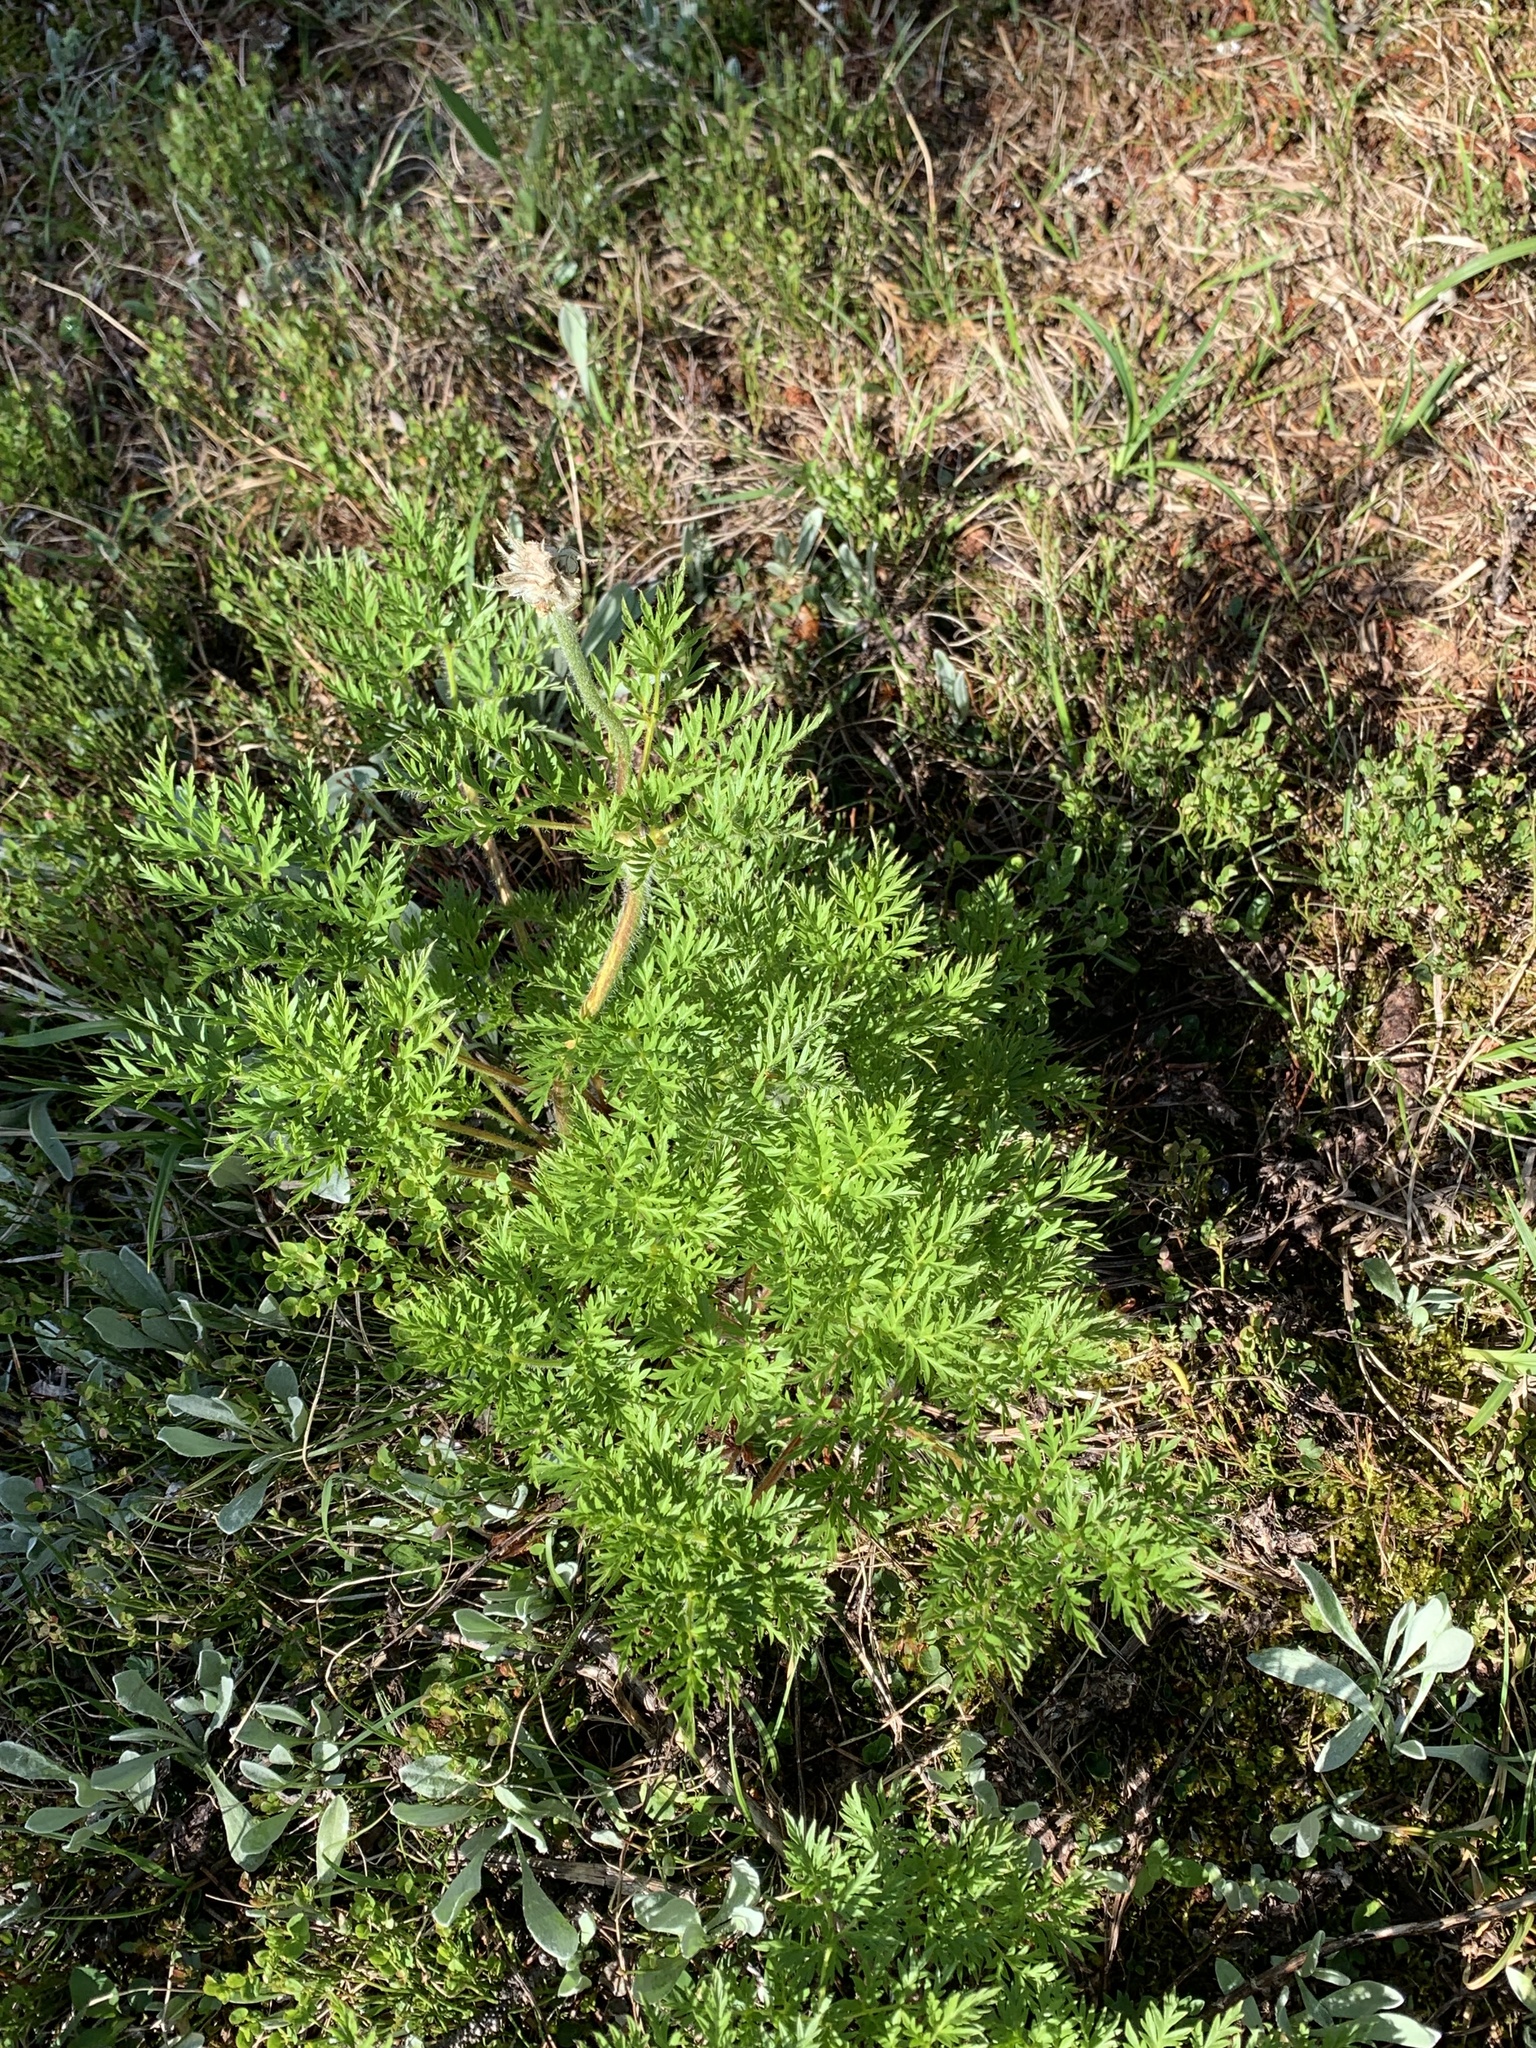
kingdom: Plantae
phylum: Tracheophyta
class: Magnoliopsida
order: Ranunculales
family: Ranunculaceae
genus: Pulsatilla
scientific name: Pulsatilla occidentalis
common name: Mountain pasqueflower
